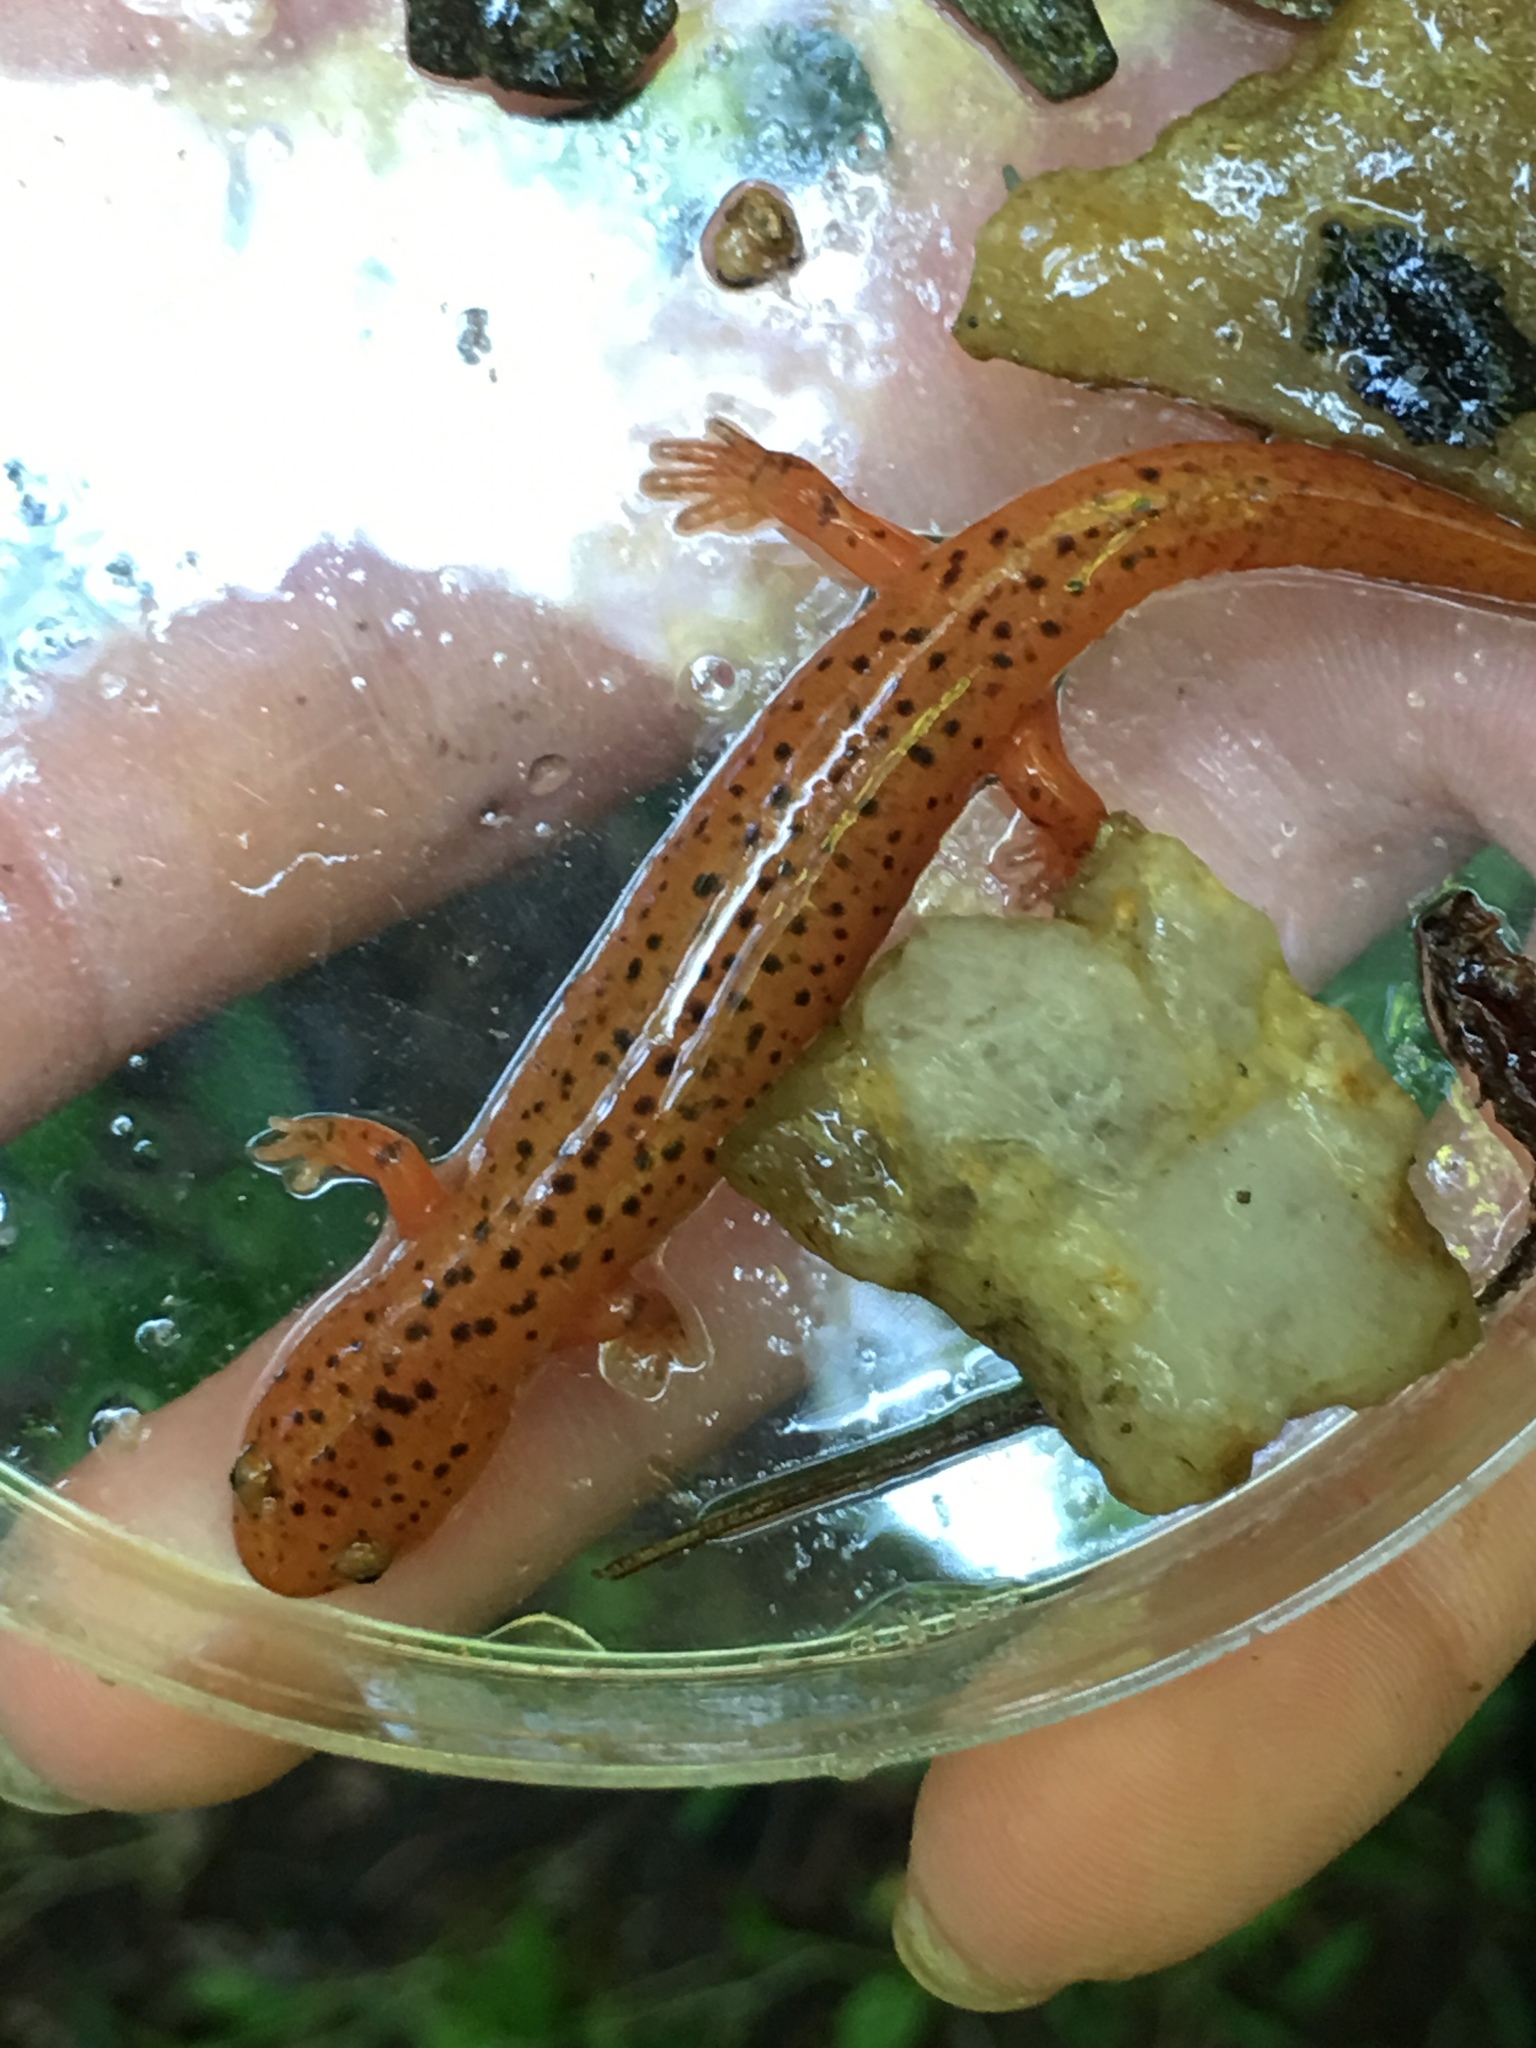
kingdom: Animalia
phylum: Chordata
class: Amphibia
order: Caudata
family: Plethodontidae
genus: Pseudotriton
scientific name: Pseudotriton ruber
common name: Red salamander
